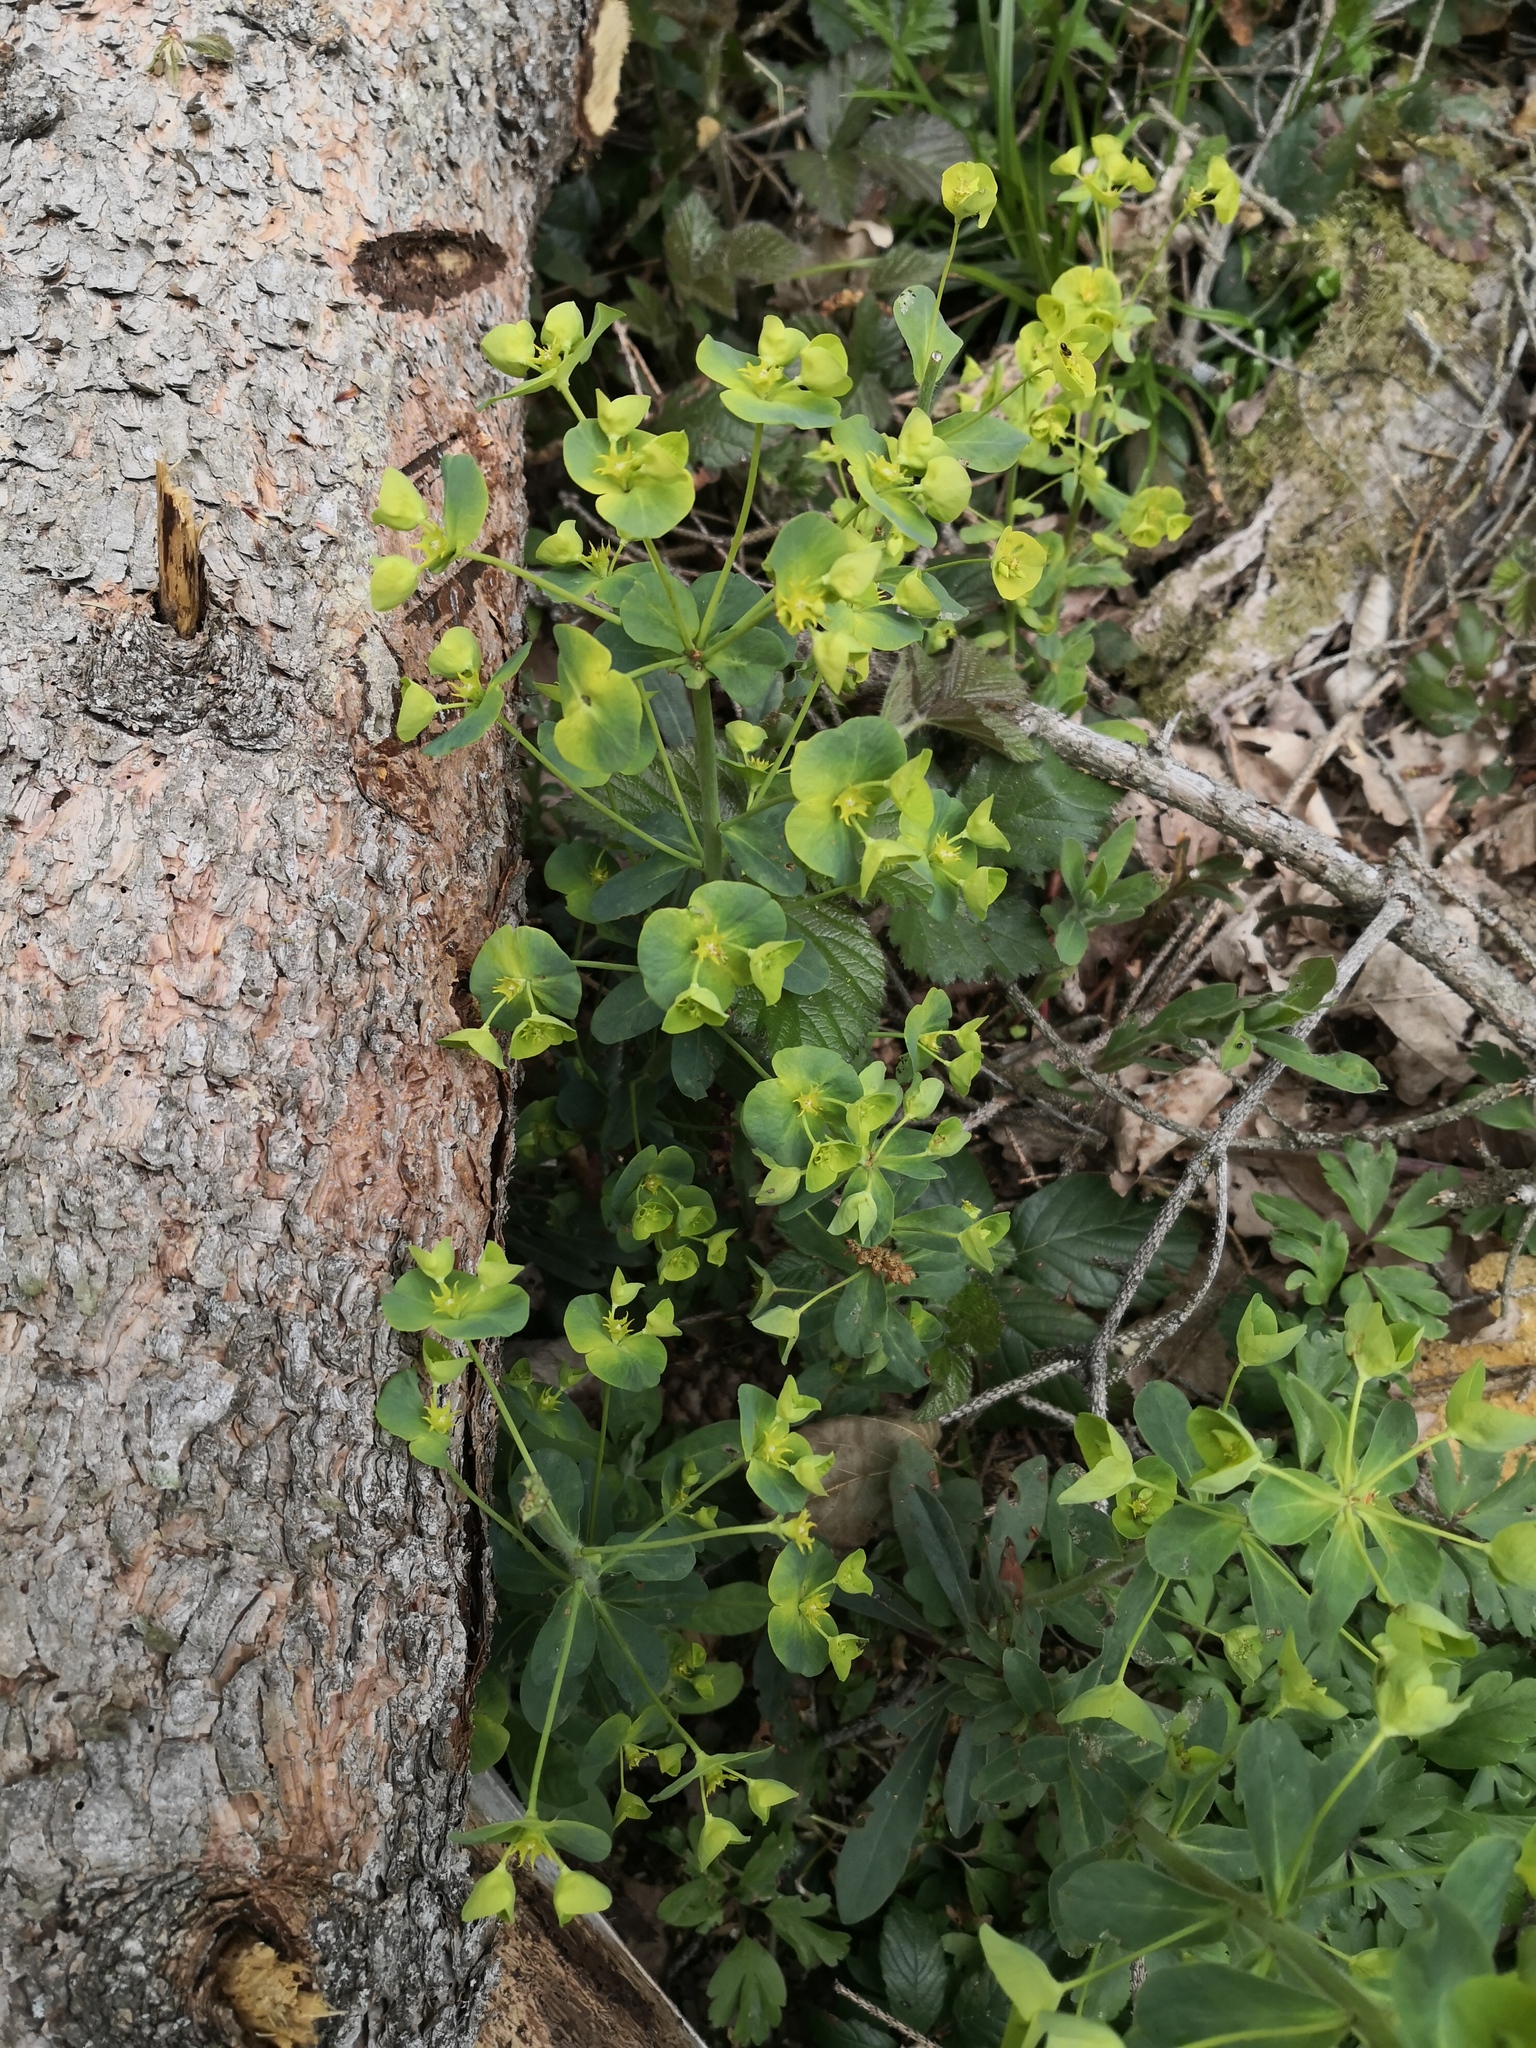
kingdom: Plantae
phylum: Tracheophyta
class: Magnoliopsida
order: Malpighiales
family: Euphorbiaceae
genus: Euphorbia
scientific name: Euphorbia amygdaloides
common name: Wood spurge
